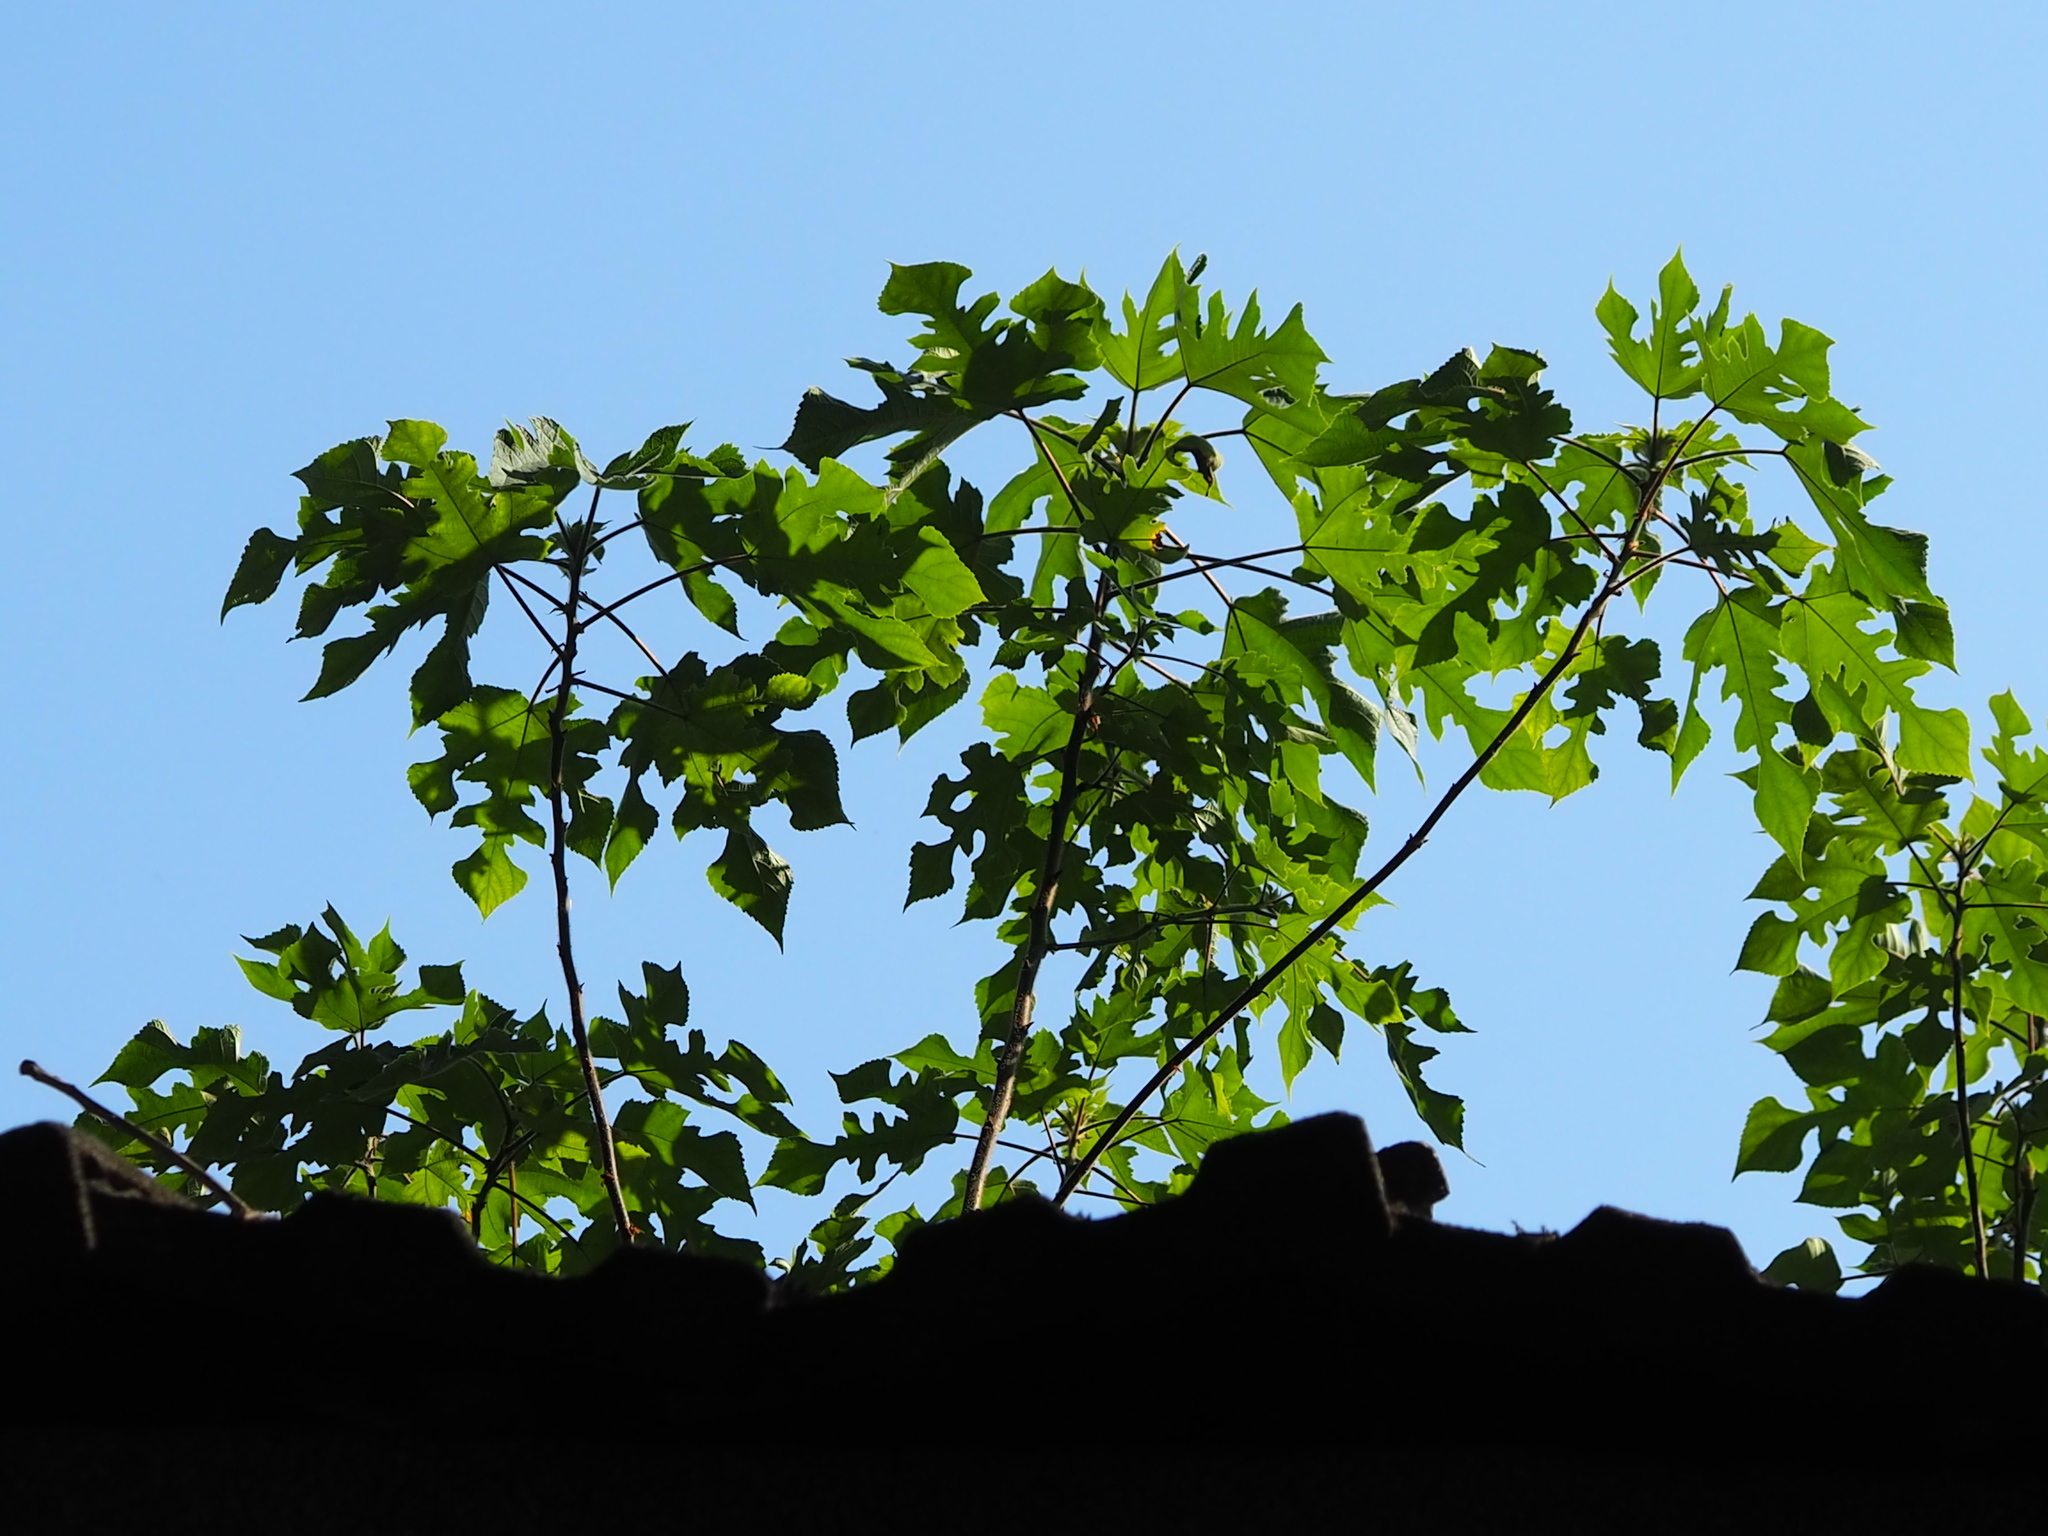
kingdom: Plantae
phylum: Tracheophyta
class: Magnoliopsida
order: Rosales
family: Moraceae
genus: Broussonetia
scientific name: Broussonetia papyrifera
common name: Paper mulberry
